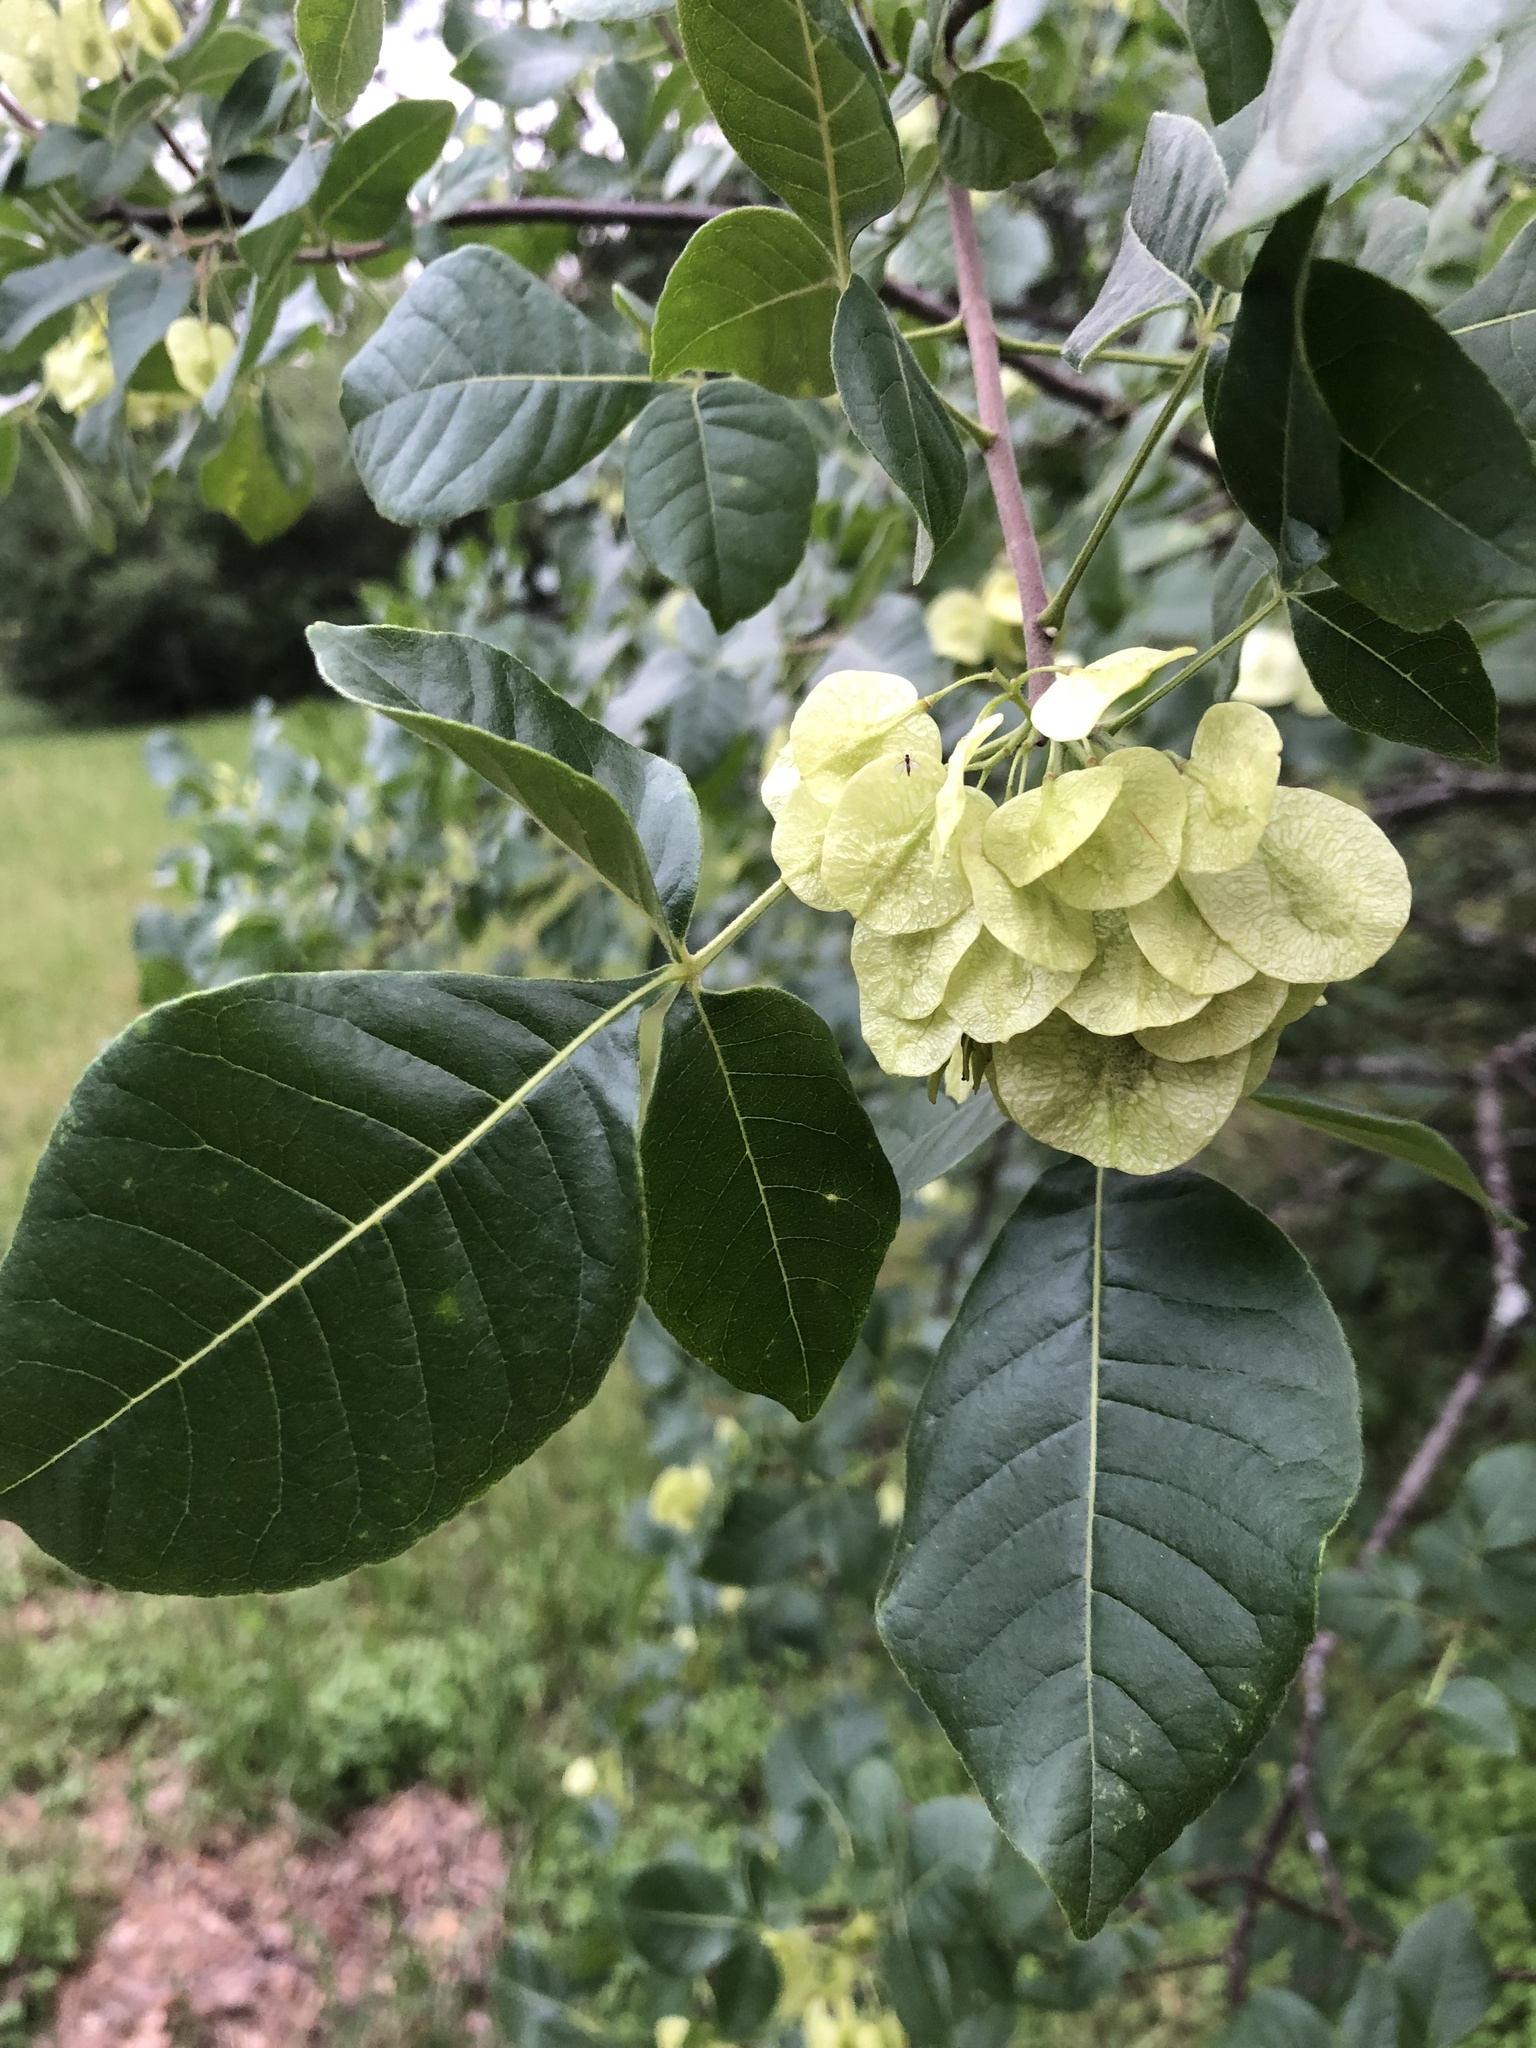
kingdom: Plantae
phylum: Tracheophyta
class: Magnoliopsida
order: Sapindales
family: Rutaceae
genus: Ptelea
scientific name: Ptelea trifoliata
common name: Common hop-tree
